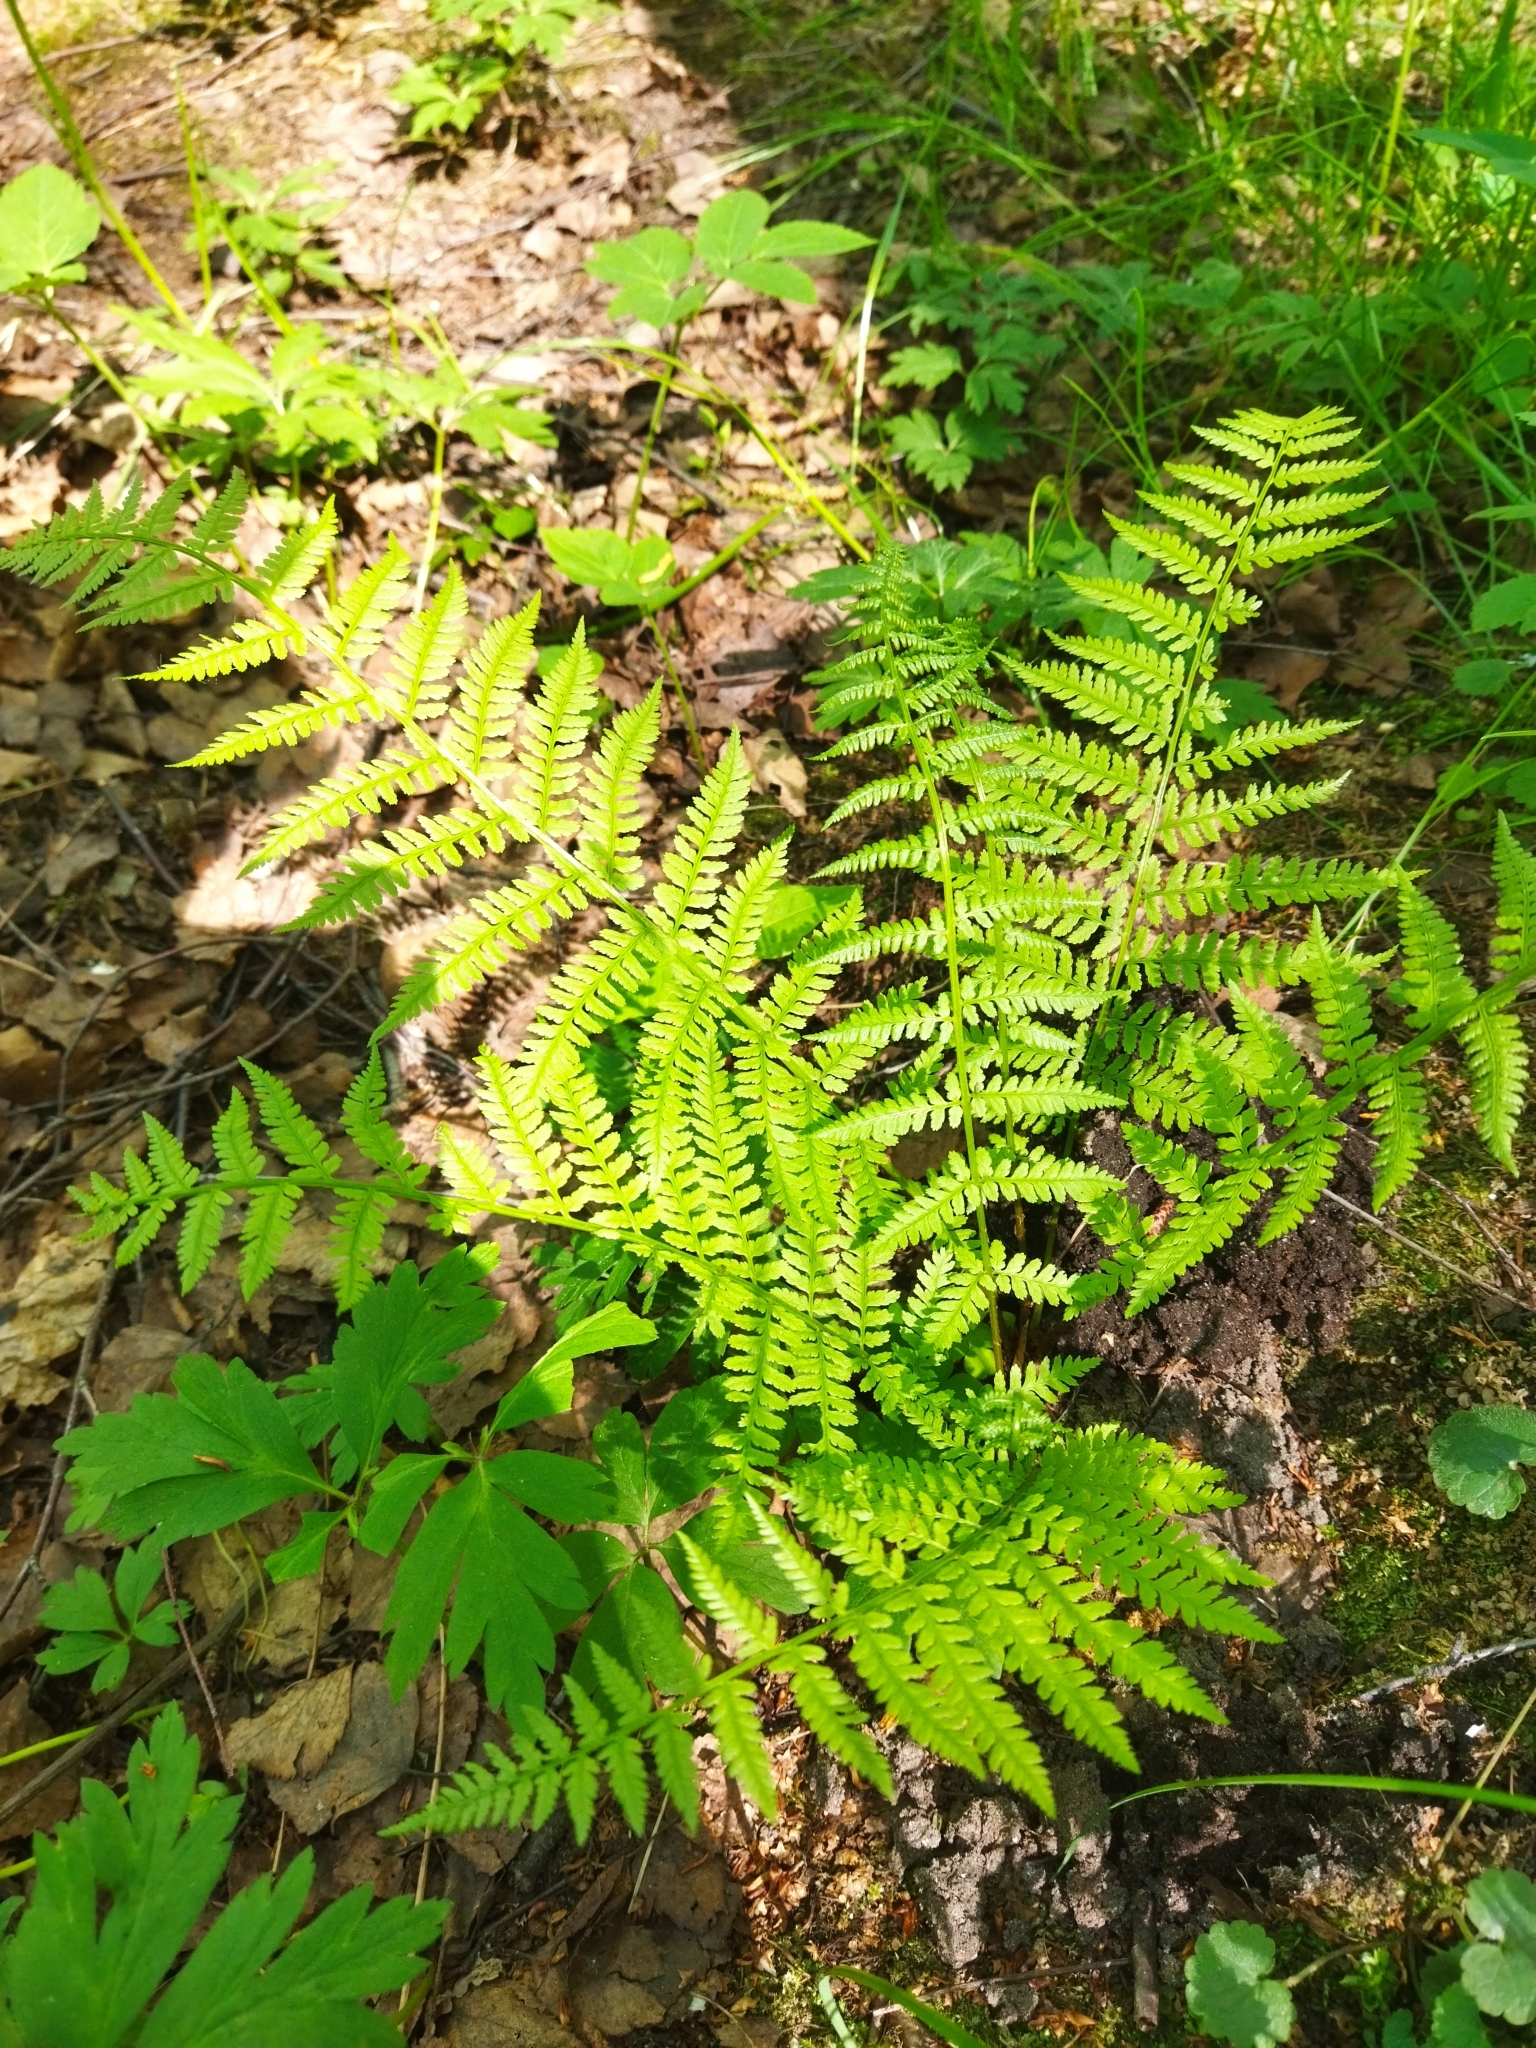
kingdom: Plantae
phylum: Tracheophyta
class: Polypodiopsida
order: Polypodiales
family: Athyriaceae
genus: Athyrium
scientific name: Athyrium filix-femina
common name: Lady fern
